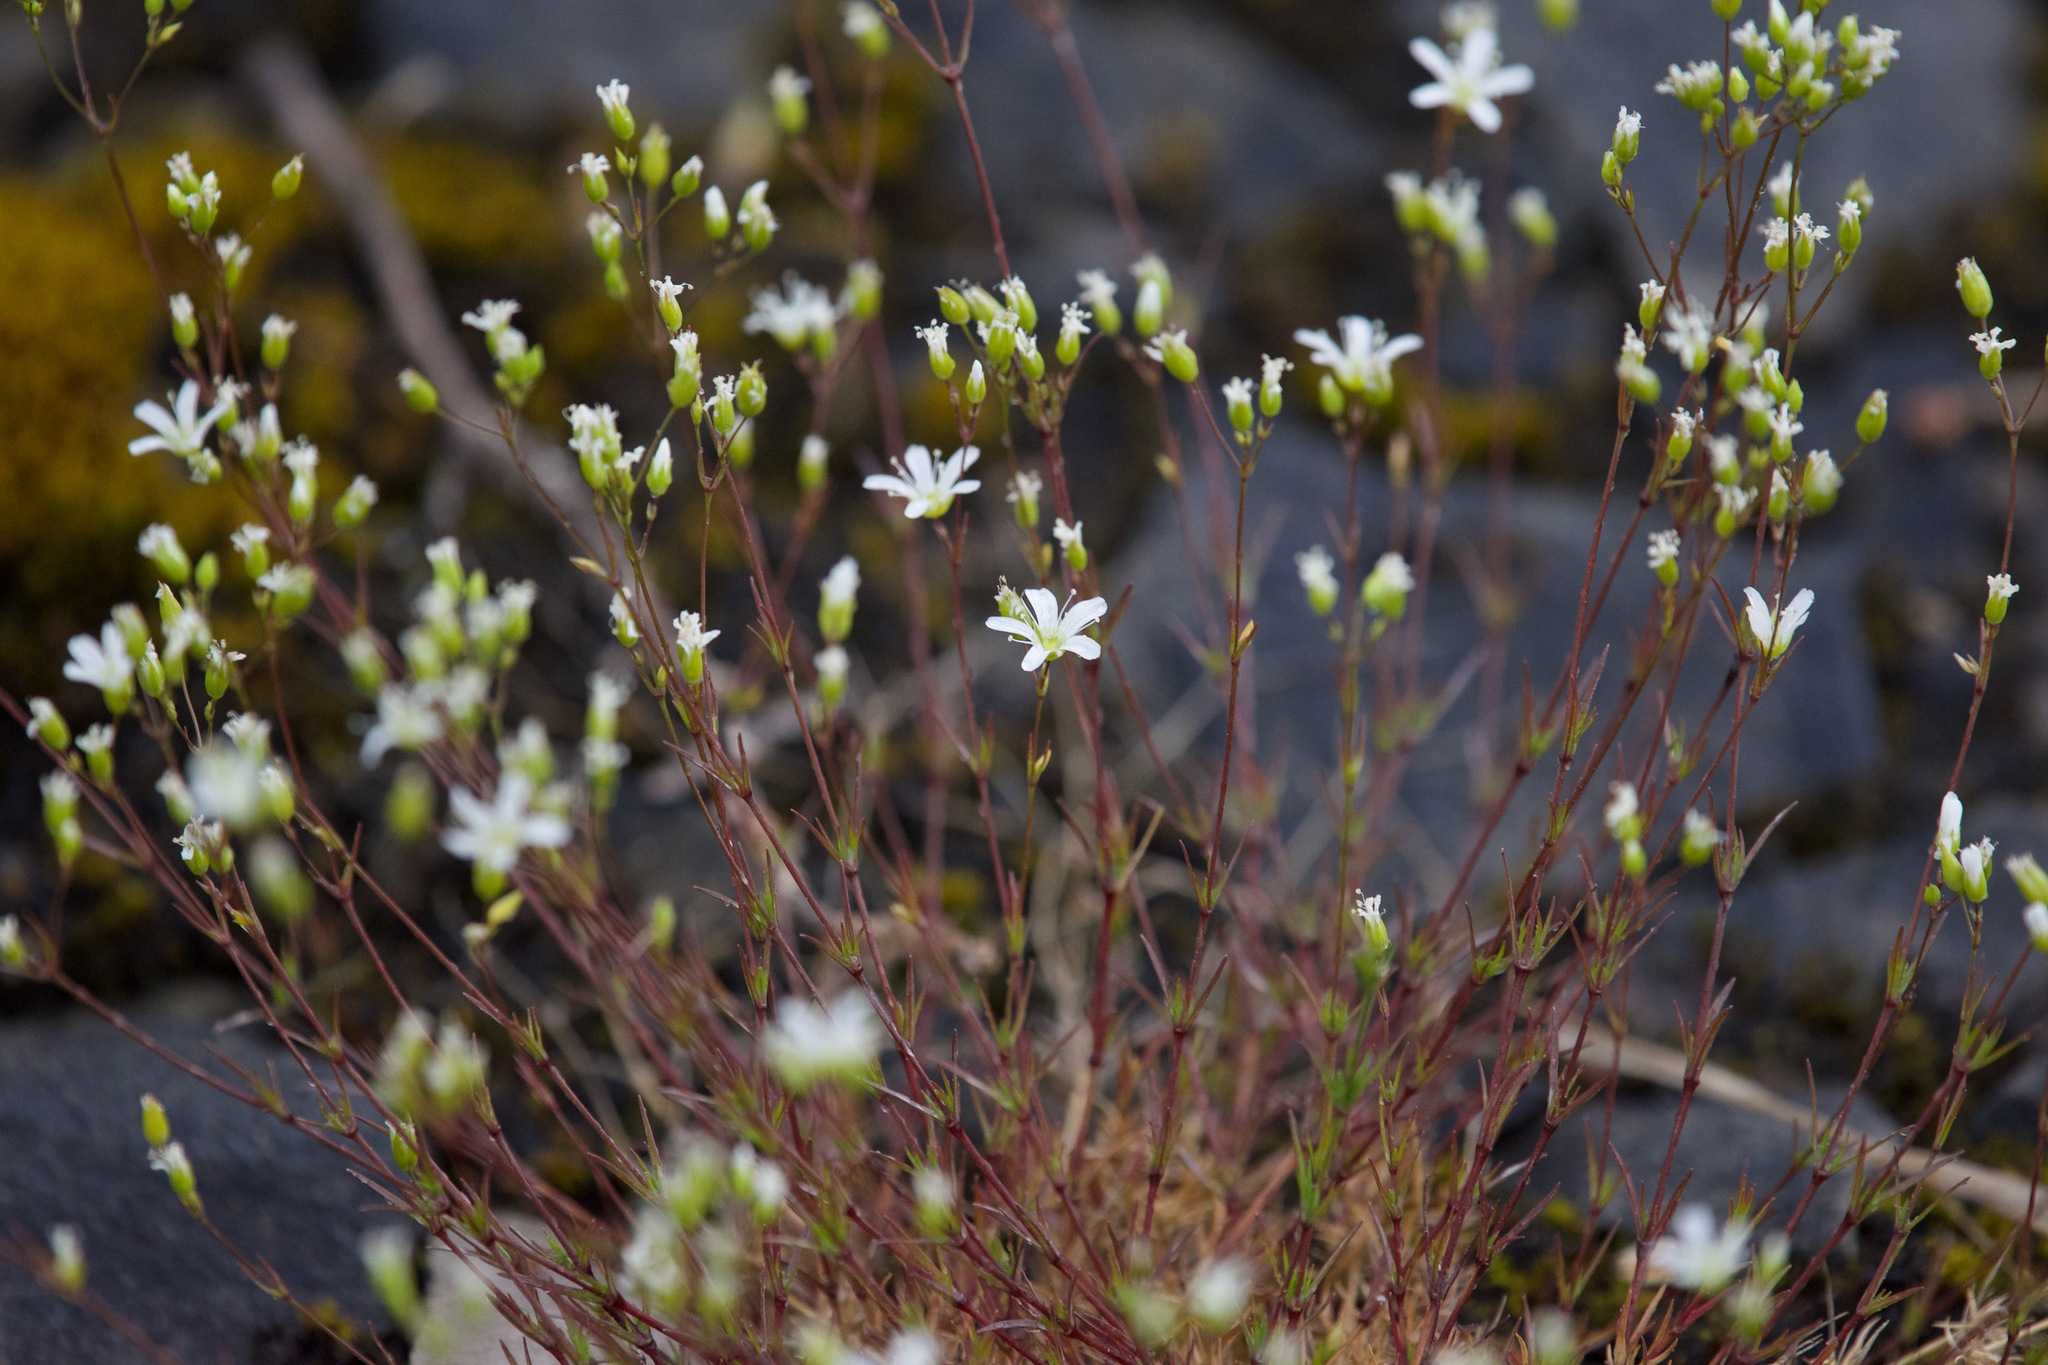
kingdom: Plantae
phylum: Tracheophyta
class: Magnoliopsida
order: Caryophyllales
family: Caryophyllaceae
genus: Sabulina
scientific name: Sabulina michauxii
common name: Michaux's stitchwort
